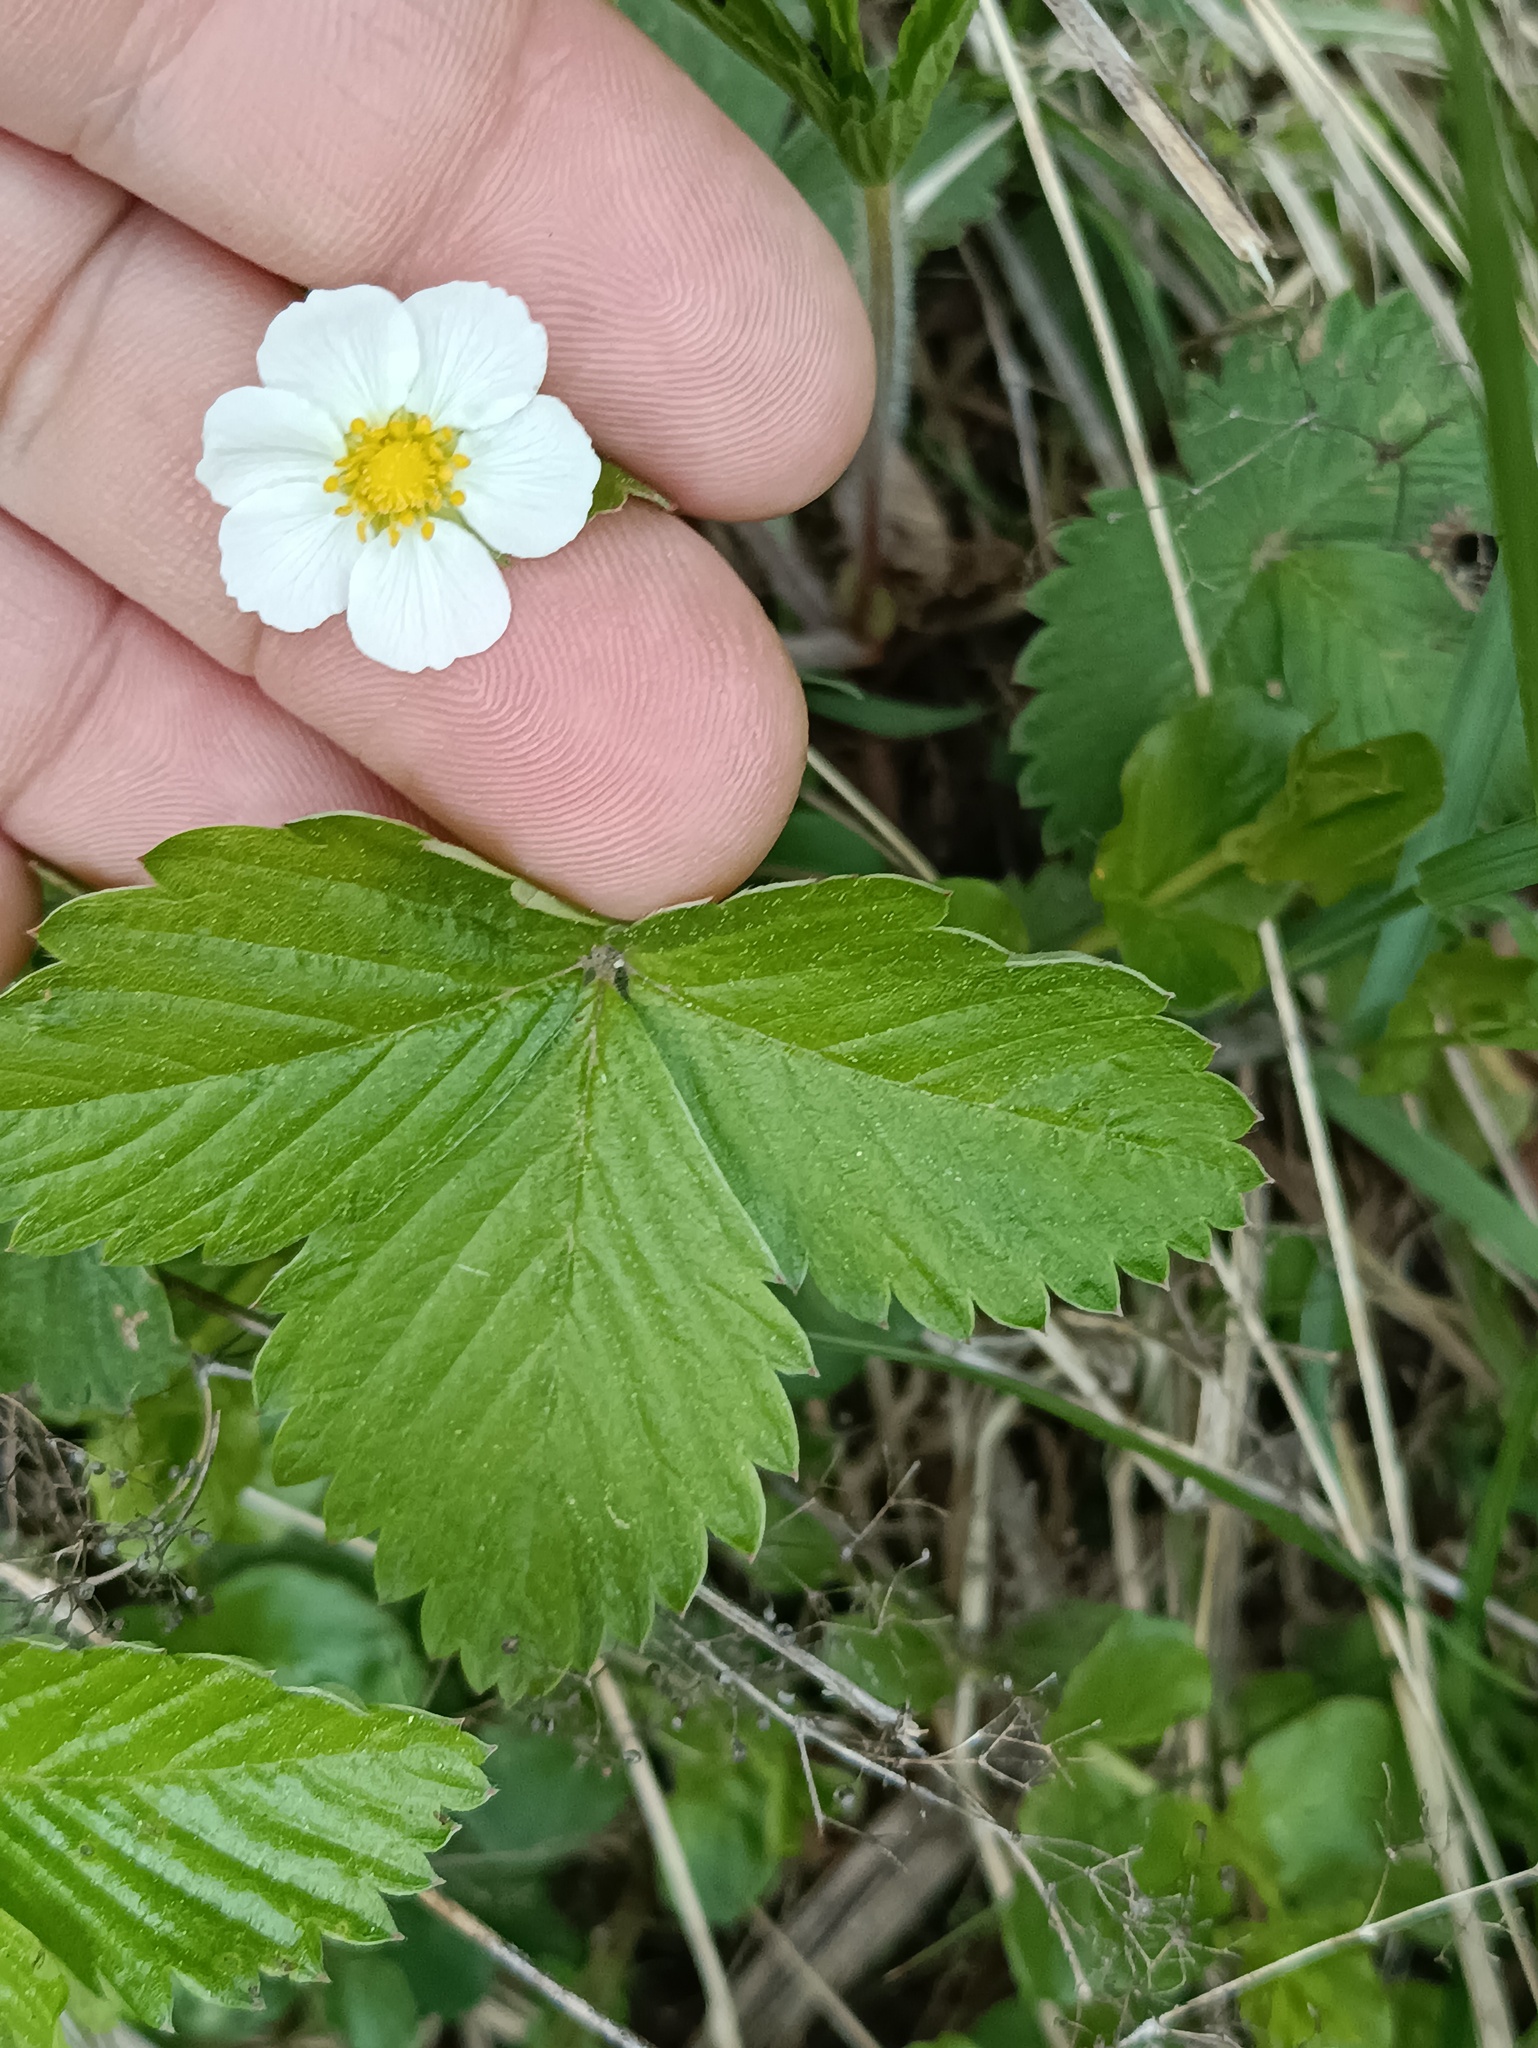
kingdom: Plantae
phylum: Tracheophyta
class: Magnoliopsida
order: Rosales
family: Rosaceae
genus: Fragaria
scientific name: Fragaria vesca
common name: Wild strawberry
